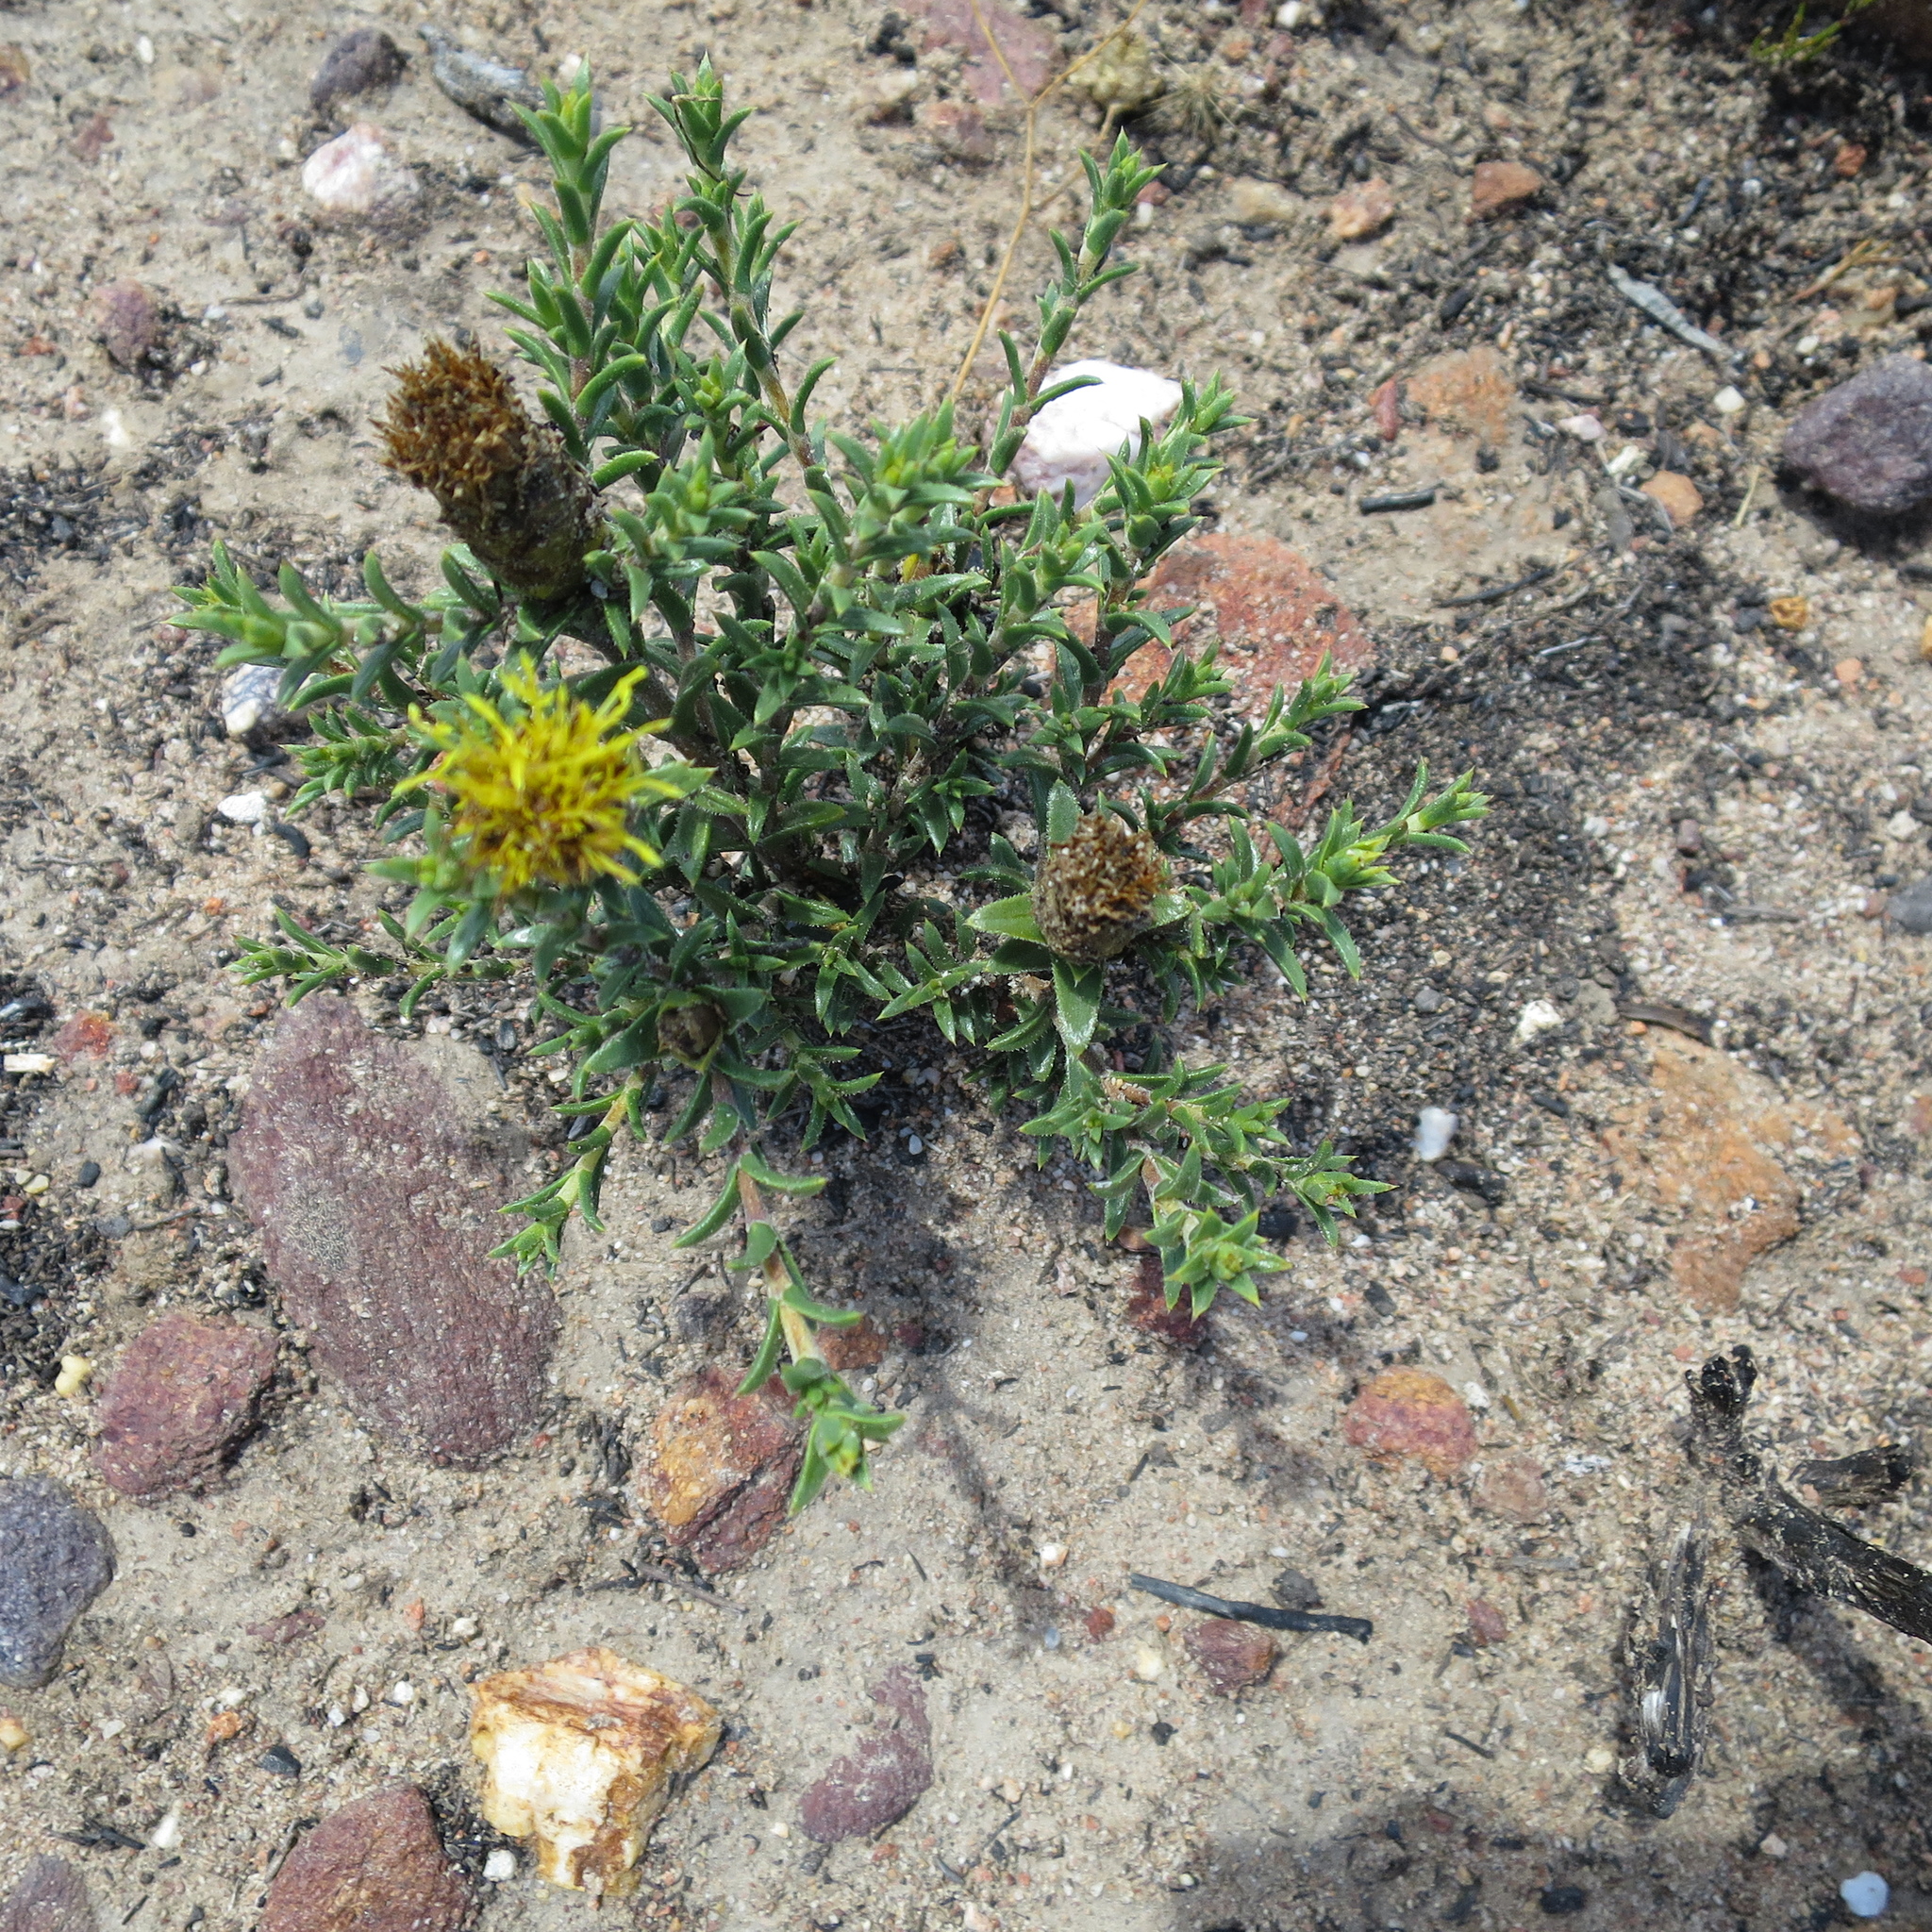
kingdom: Plantae
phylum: Tracheophyta
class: Magnoliopsida
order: Asterales
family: Asteraceae
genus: Pteronia
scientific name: Pteronia elongata
